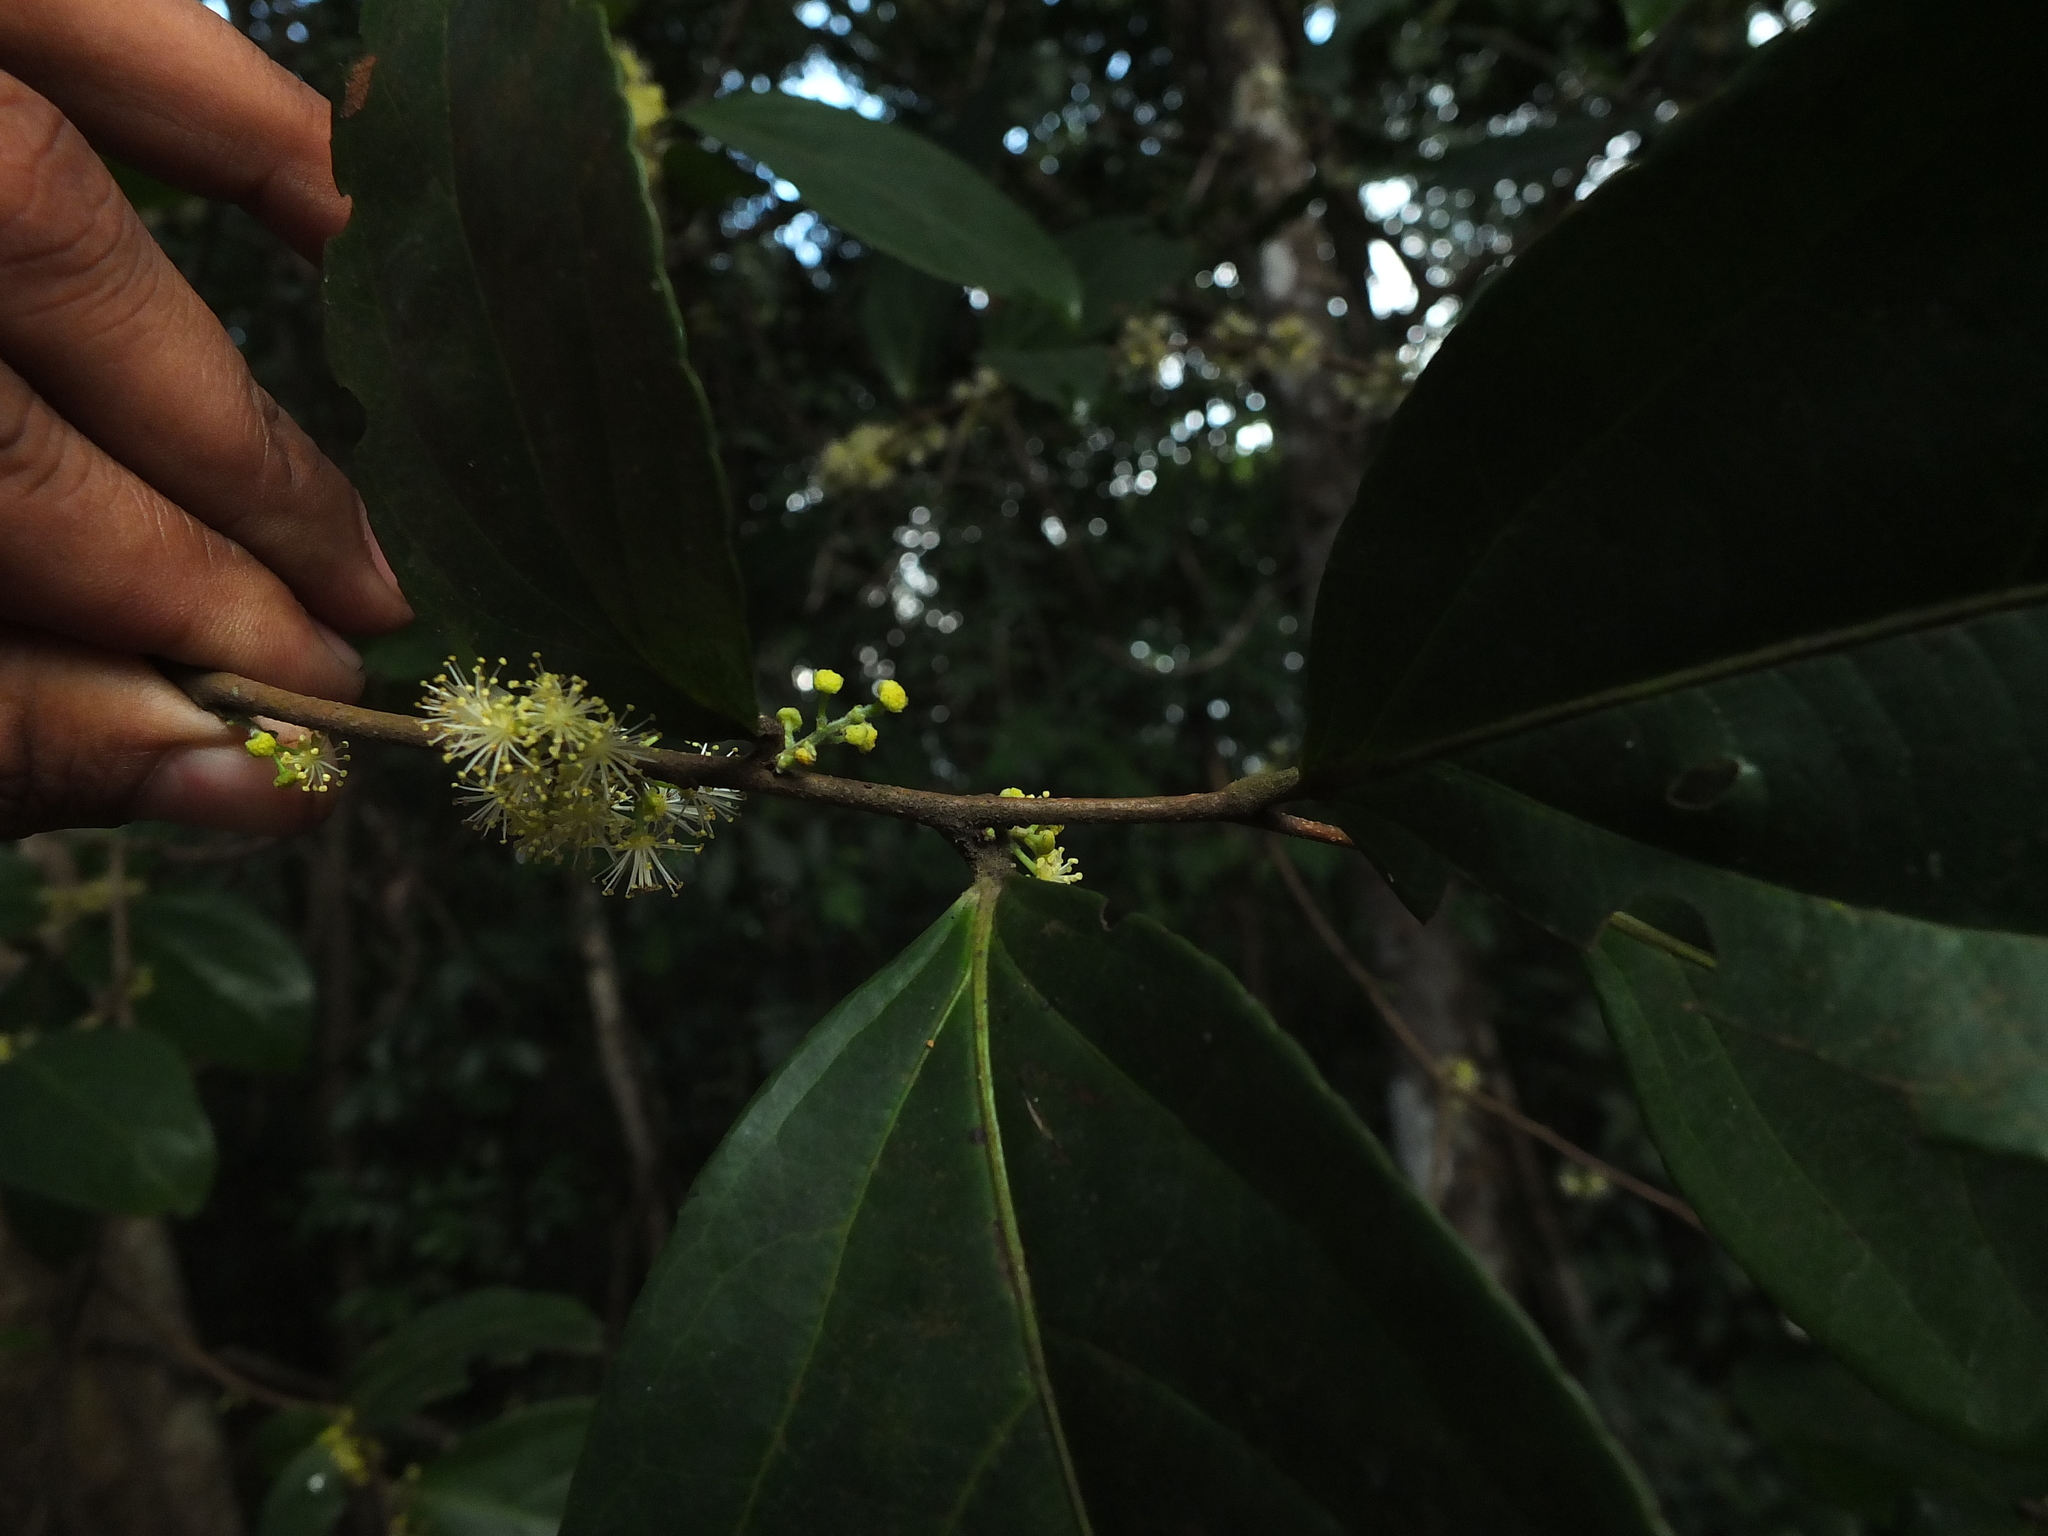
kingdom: Plantae
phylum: Tracheophyta
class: Magnoliopsida
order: Malpighiales
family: Salicaceae
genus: Flacourtia
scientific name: Flacourtia montana
